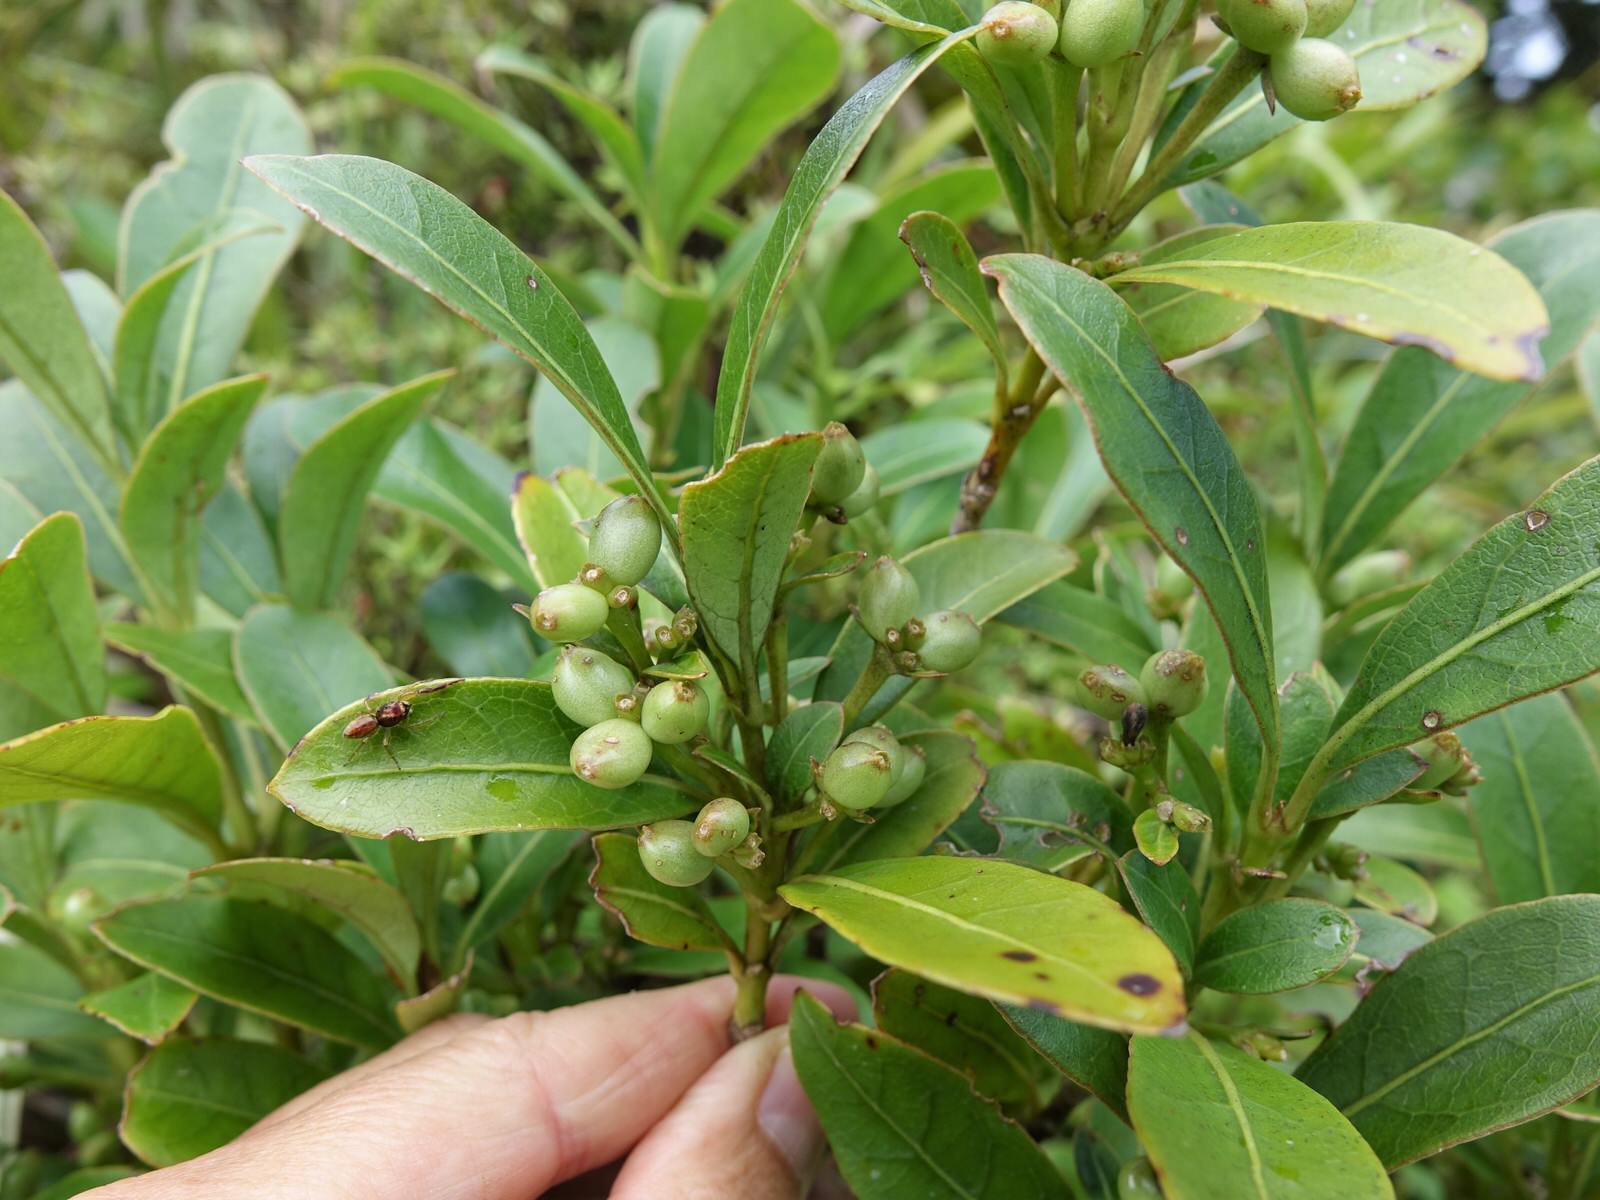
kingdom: Plantae
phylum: Tracheophyta
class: Magnoliopsida
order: Gentianales
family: Rubiaceae
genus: Coprosma
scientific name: Coprosma dodonaeifolia
